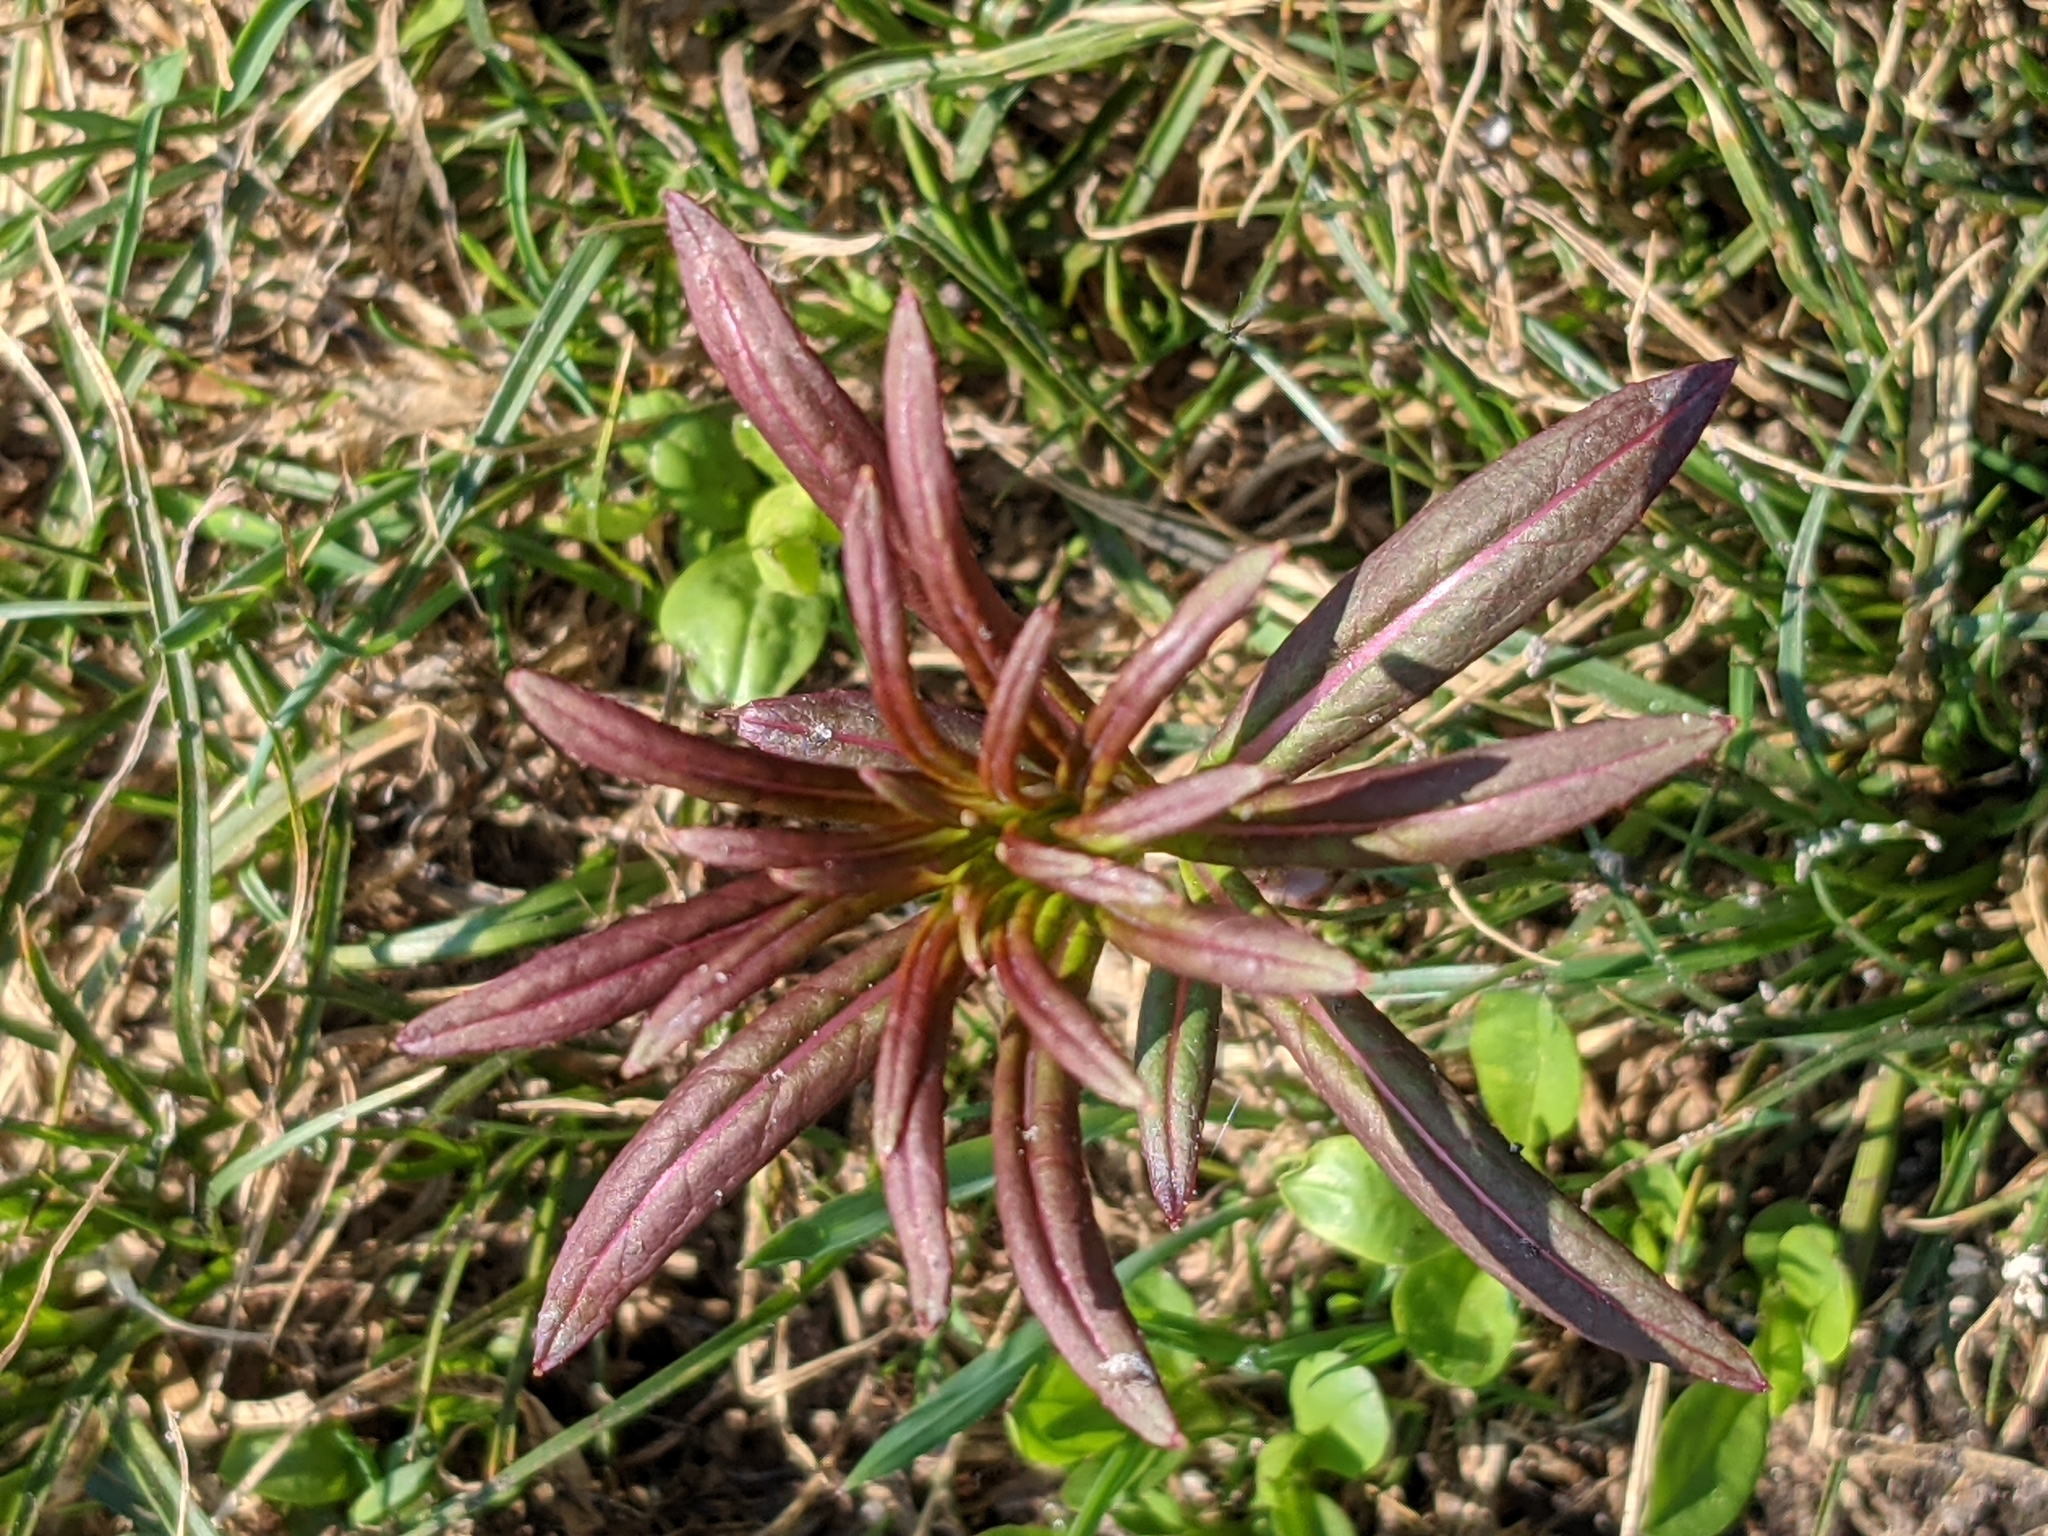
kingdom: Plantae
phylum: Tracheophyta
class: Magnoliopsida
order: Myrtales
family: Onagraceae
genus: Chamaenerion
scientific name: Chamaenerion angustifolium
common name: Fireweed
